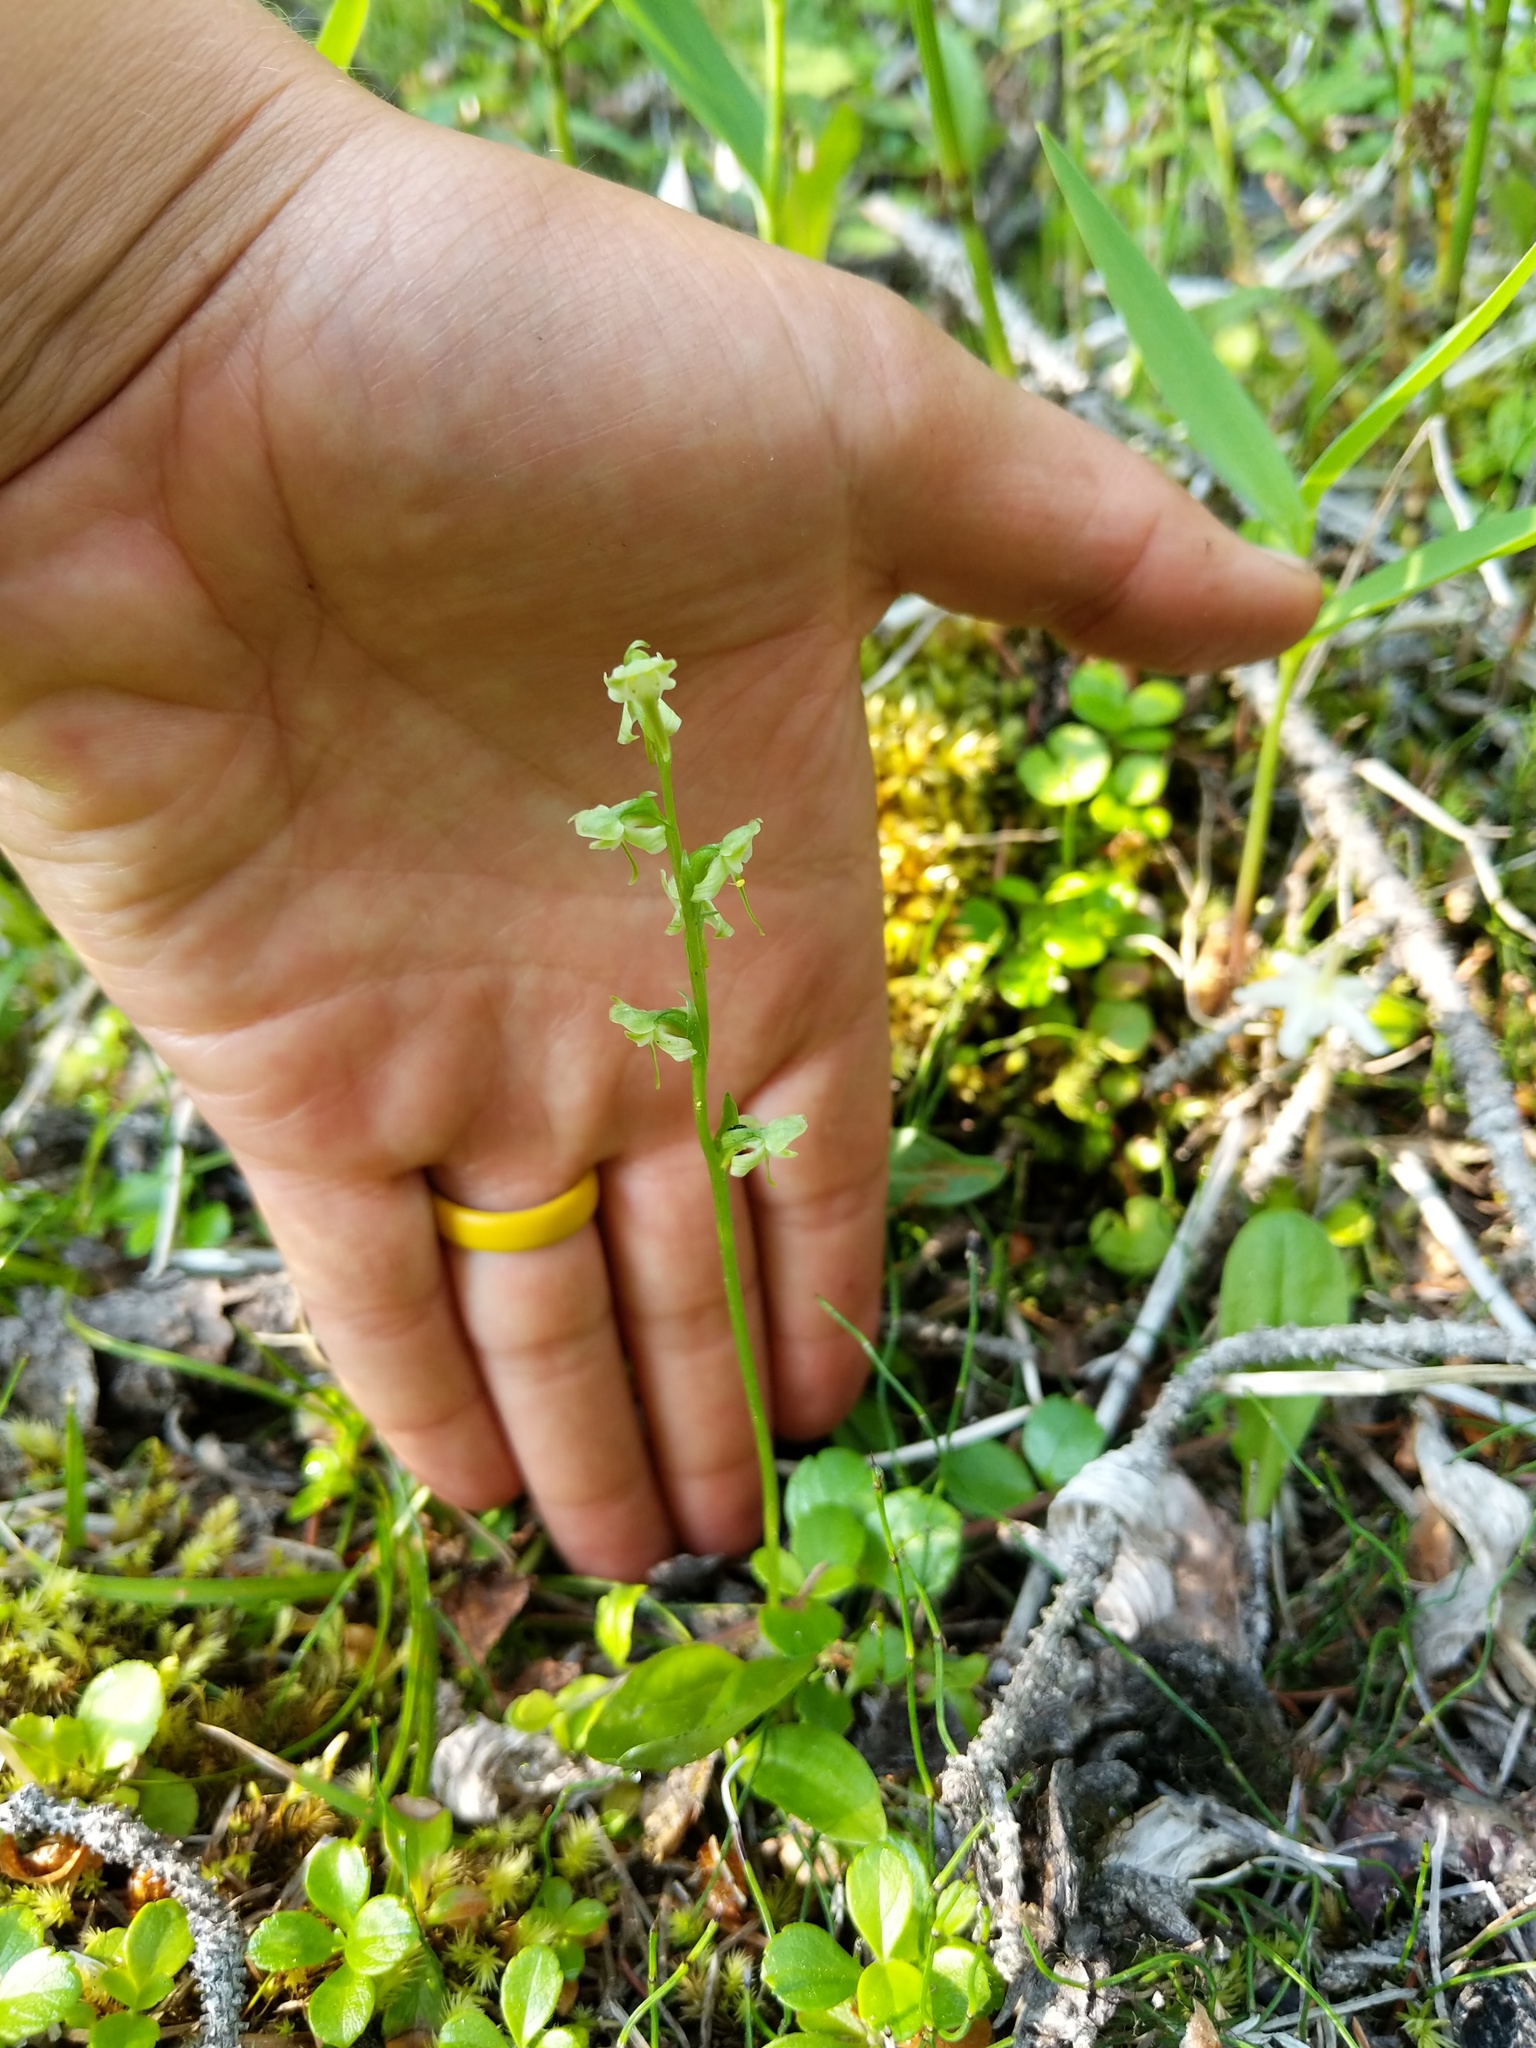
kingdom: Plantae
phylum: Tracheophyta
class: Liliopsida
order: Asparagales
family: Orchidaceae
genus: Platanthera
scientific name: Platanthera obtusata
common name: Blunt bog orchid
